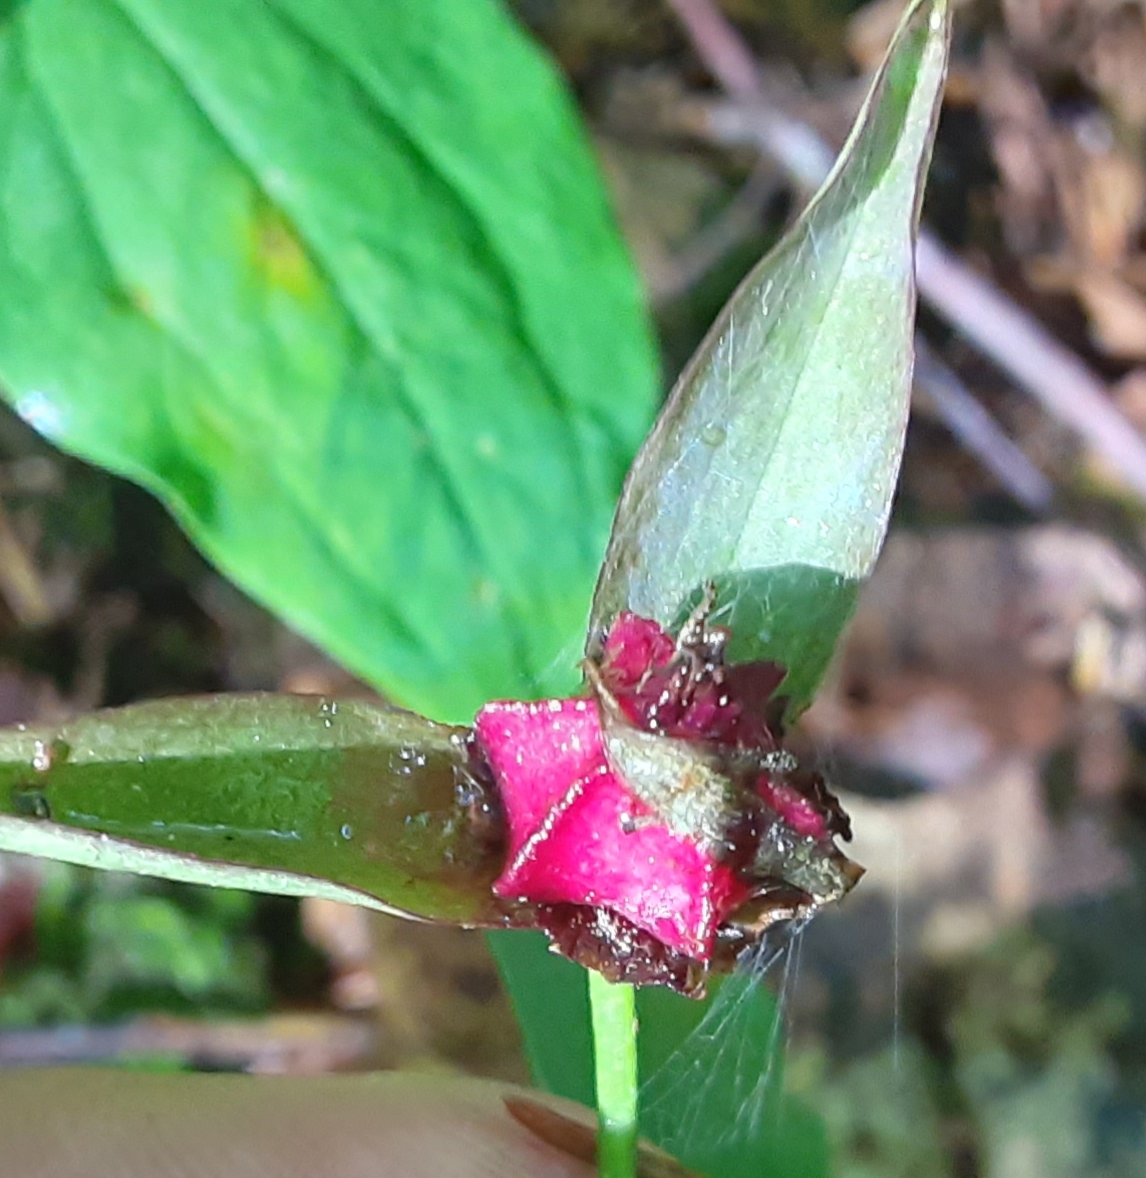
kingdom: Plantae
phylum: Tracheophyta
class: Liliopsida
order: Liliales
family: Melanthiaceae
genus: Trillium
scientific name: Trillium erectum
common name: Purple trillium
